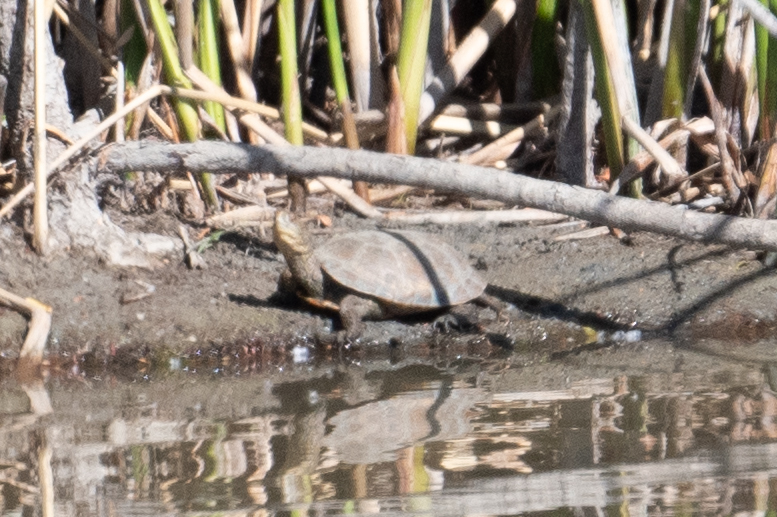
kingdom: Animalia
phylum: Chordata
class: Testudines
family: Emydidae
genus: Actinemys
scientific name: Actinemys marmorata
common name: Western pond turtle
